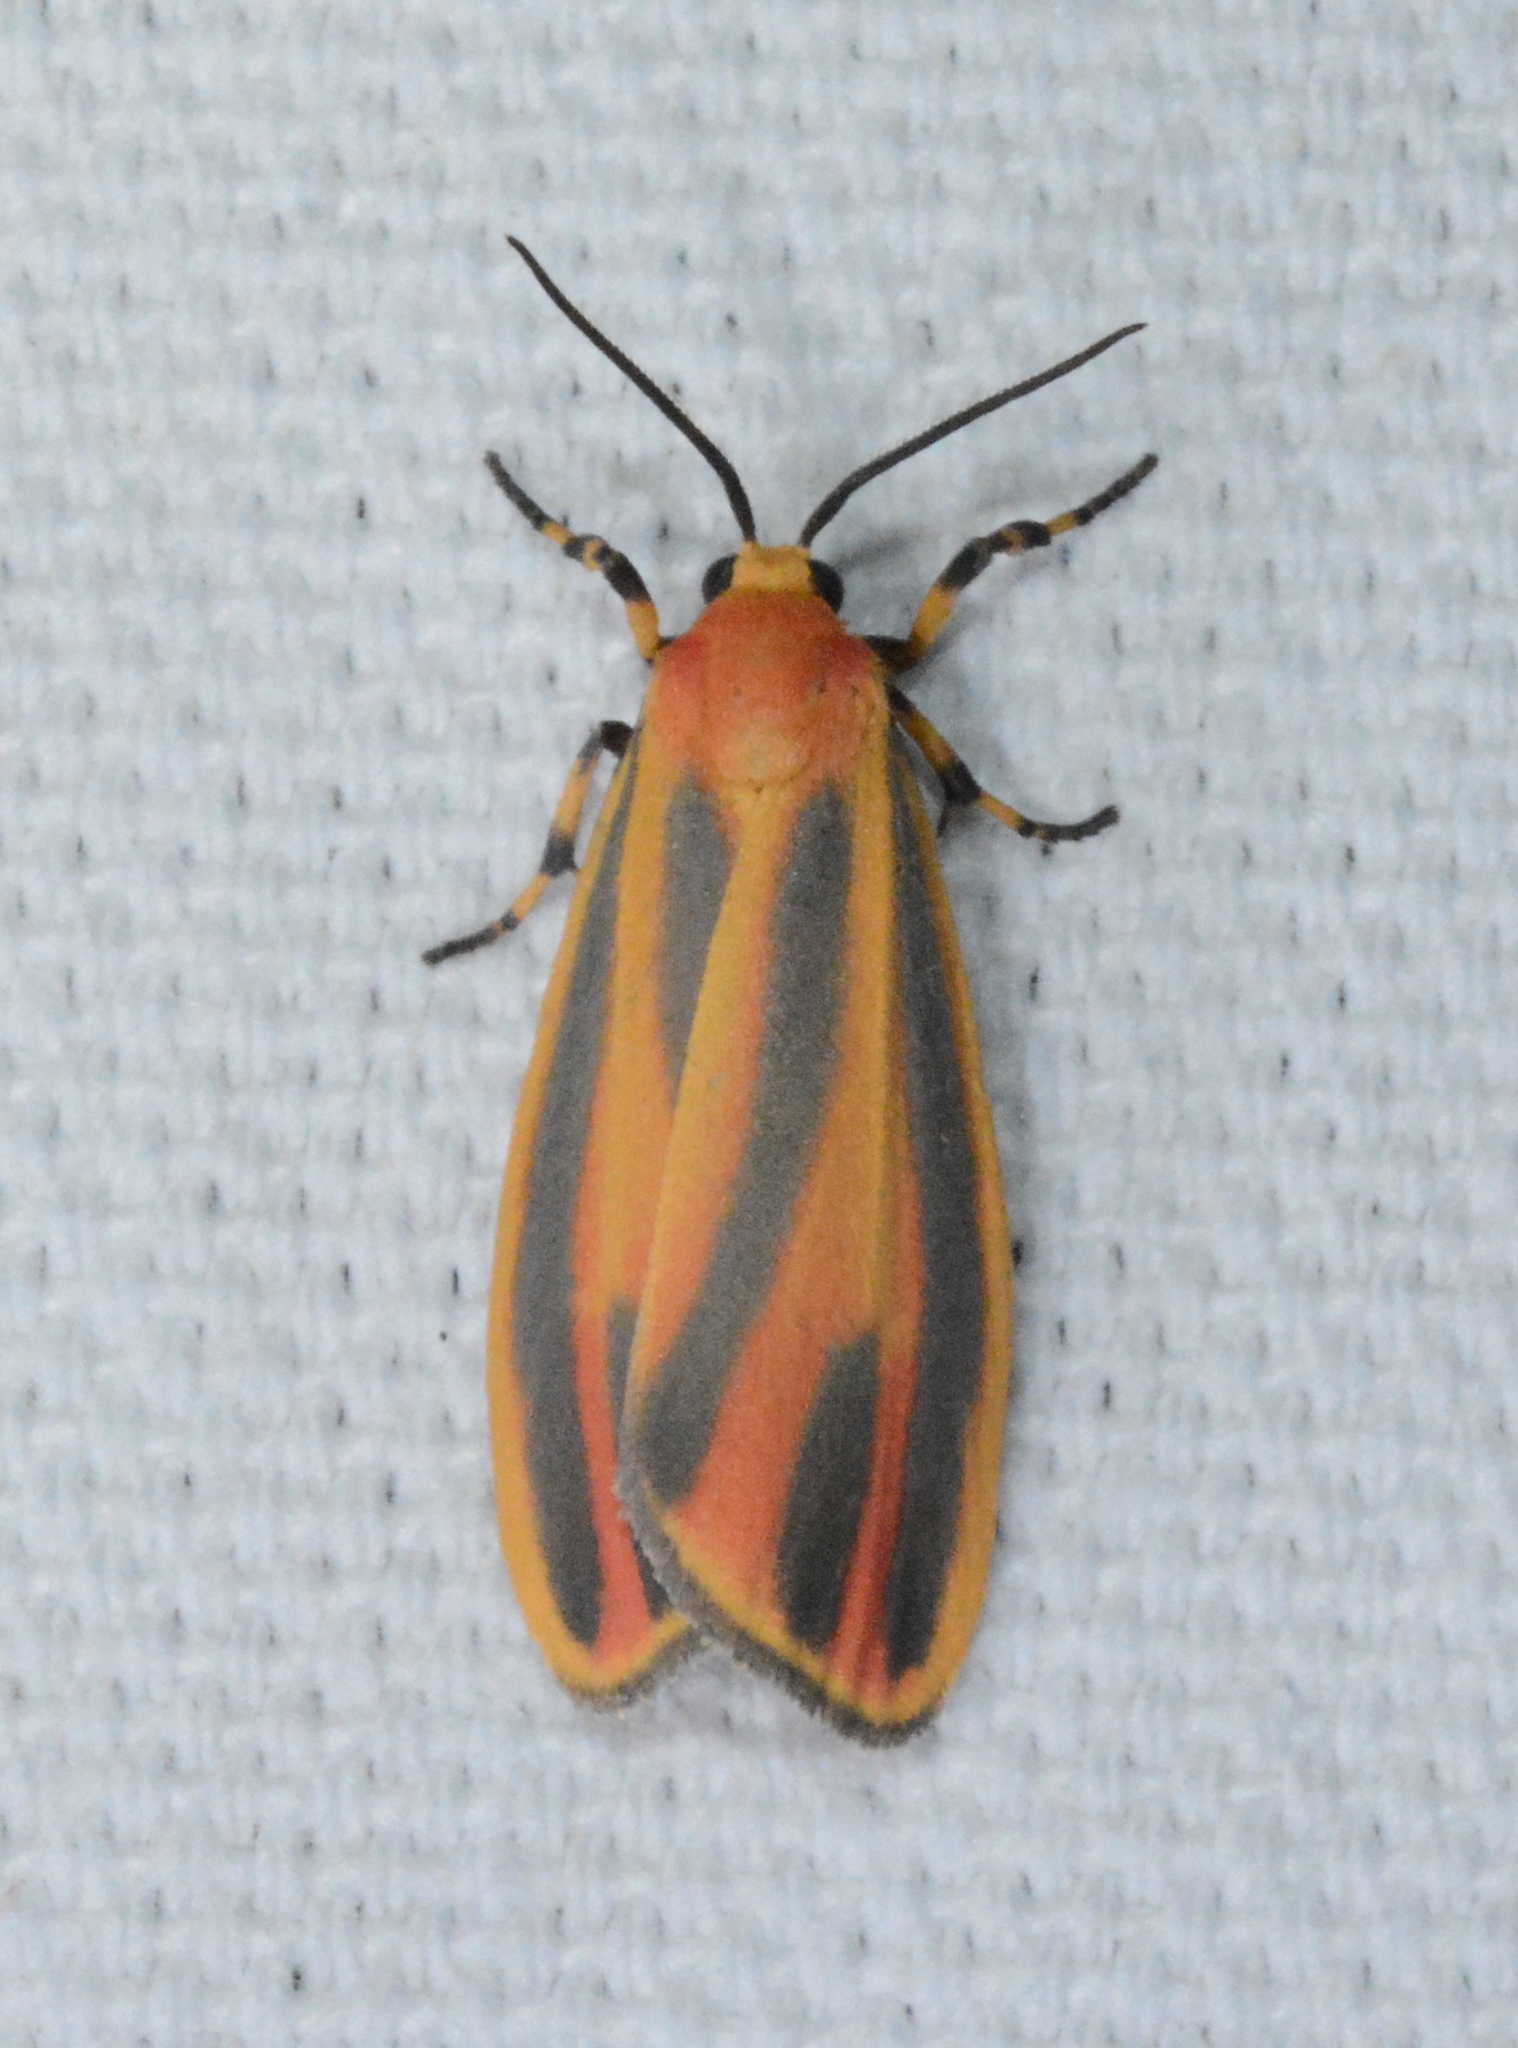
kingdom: Animalia
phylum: Arthropoda
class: Insecta
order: Lepidoptera
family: Erebidae
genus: Hypoprepia
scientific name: Hypoprepia fucosa
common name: Painted lichen moth
